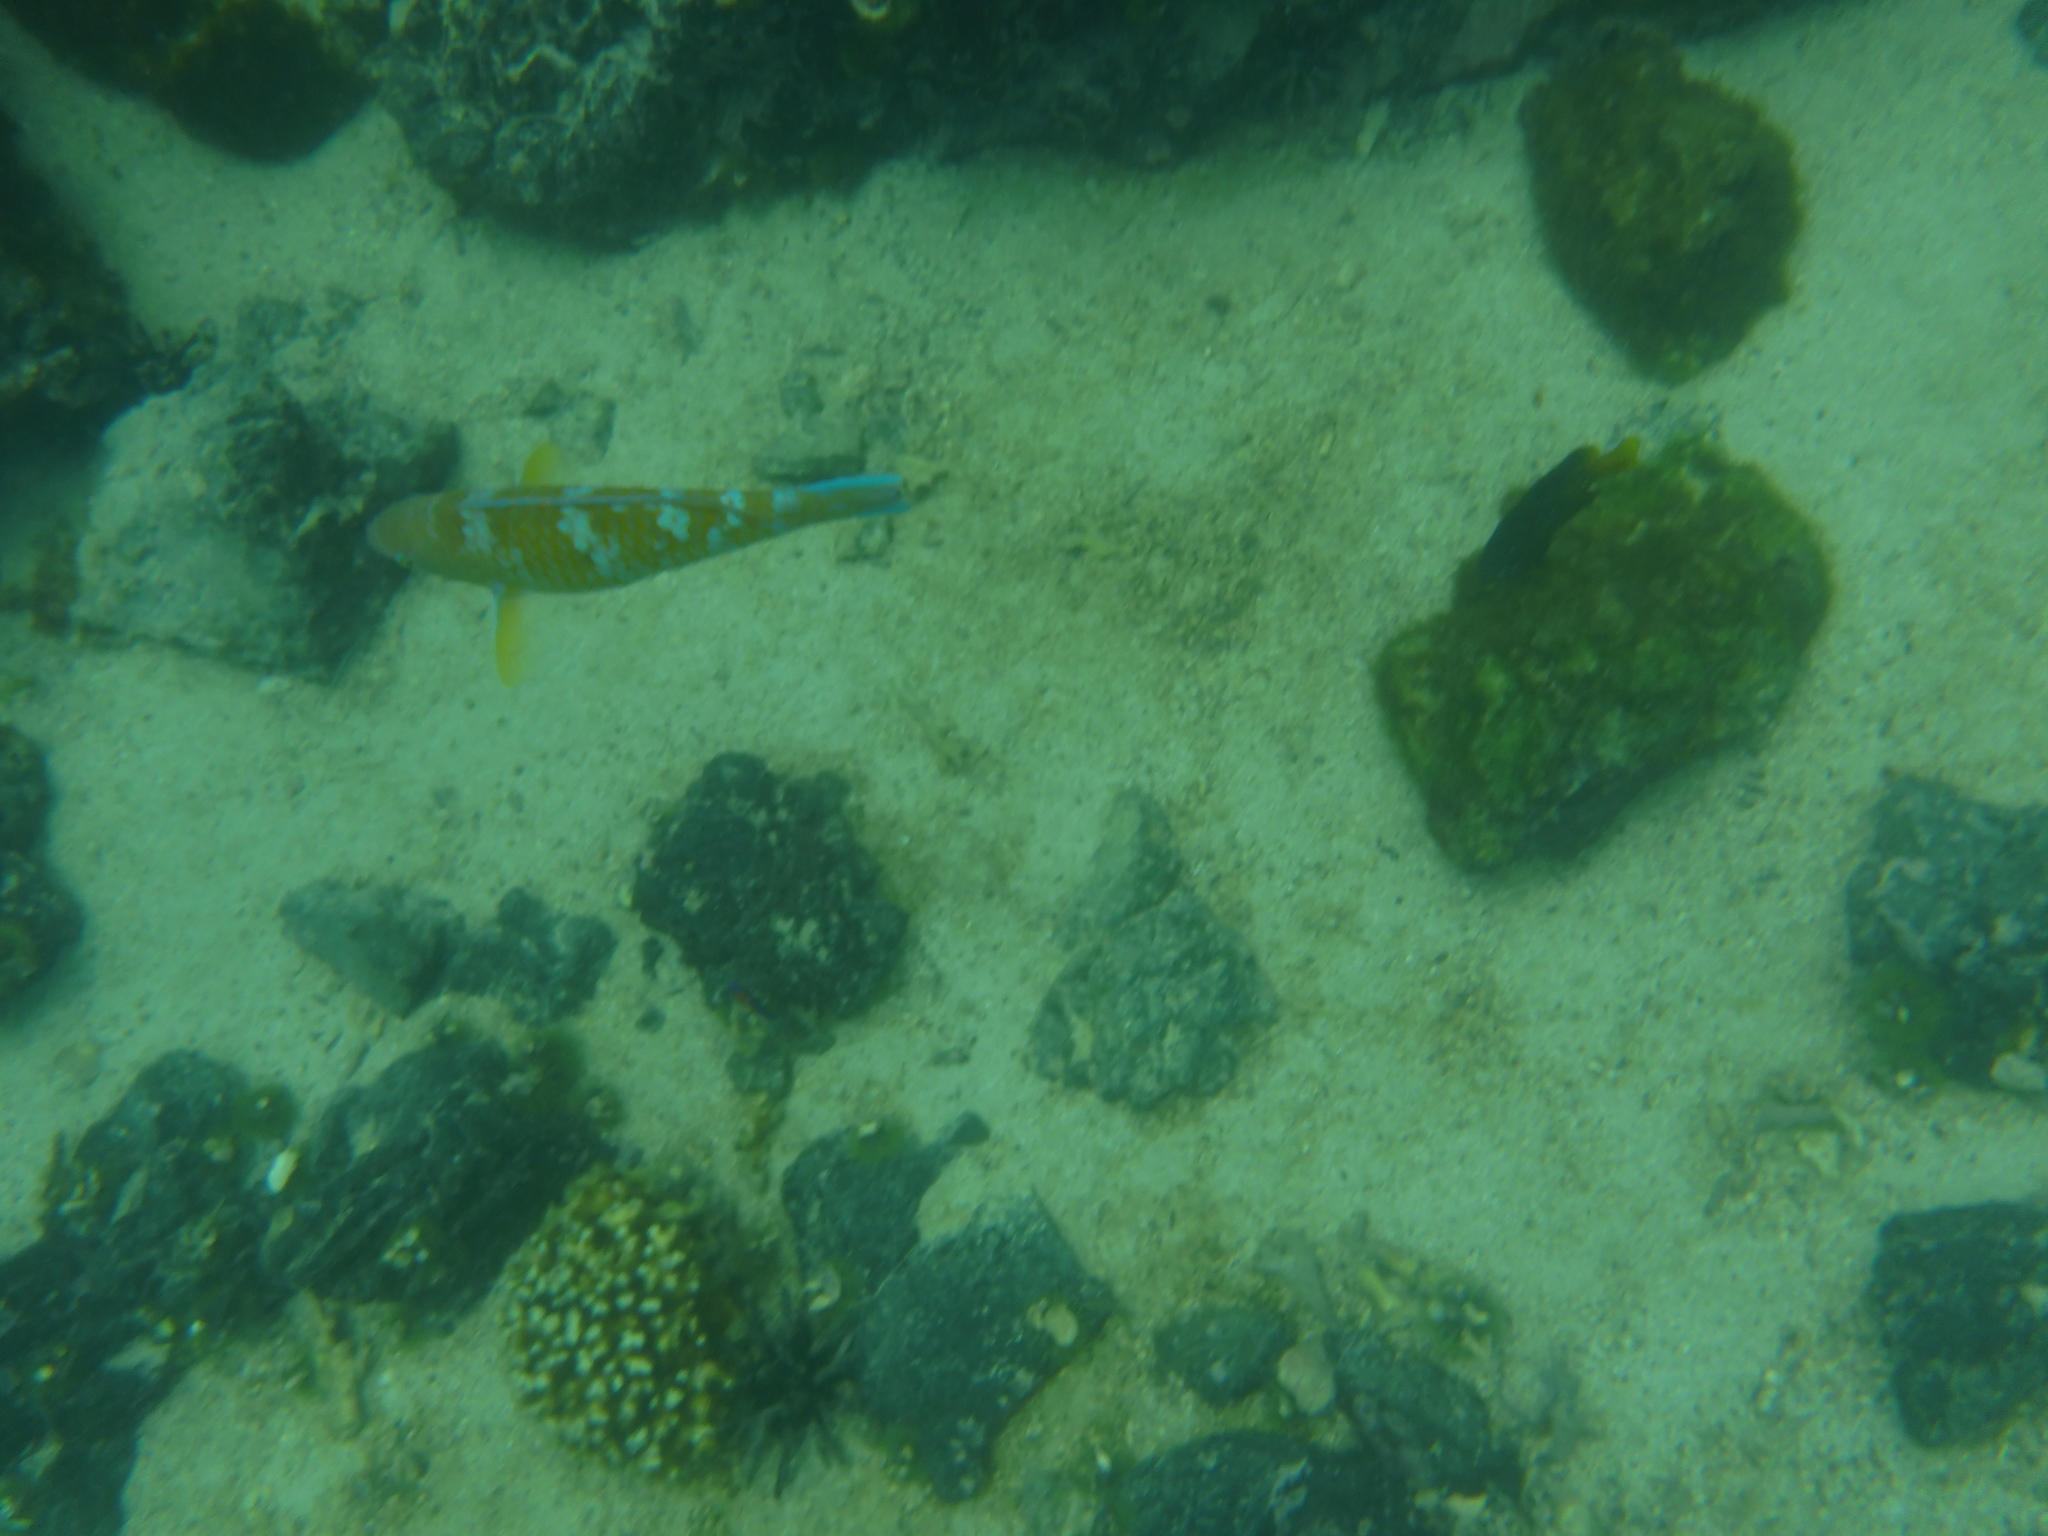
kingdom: Animalia
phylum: Chordata
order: Perciformes
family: Scaridae
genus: Scarus
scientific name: Scarus ghobban
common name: Blue-barred parrotfish
